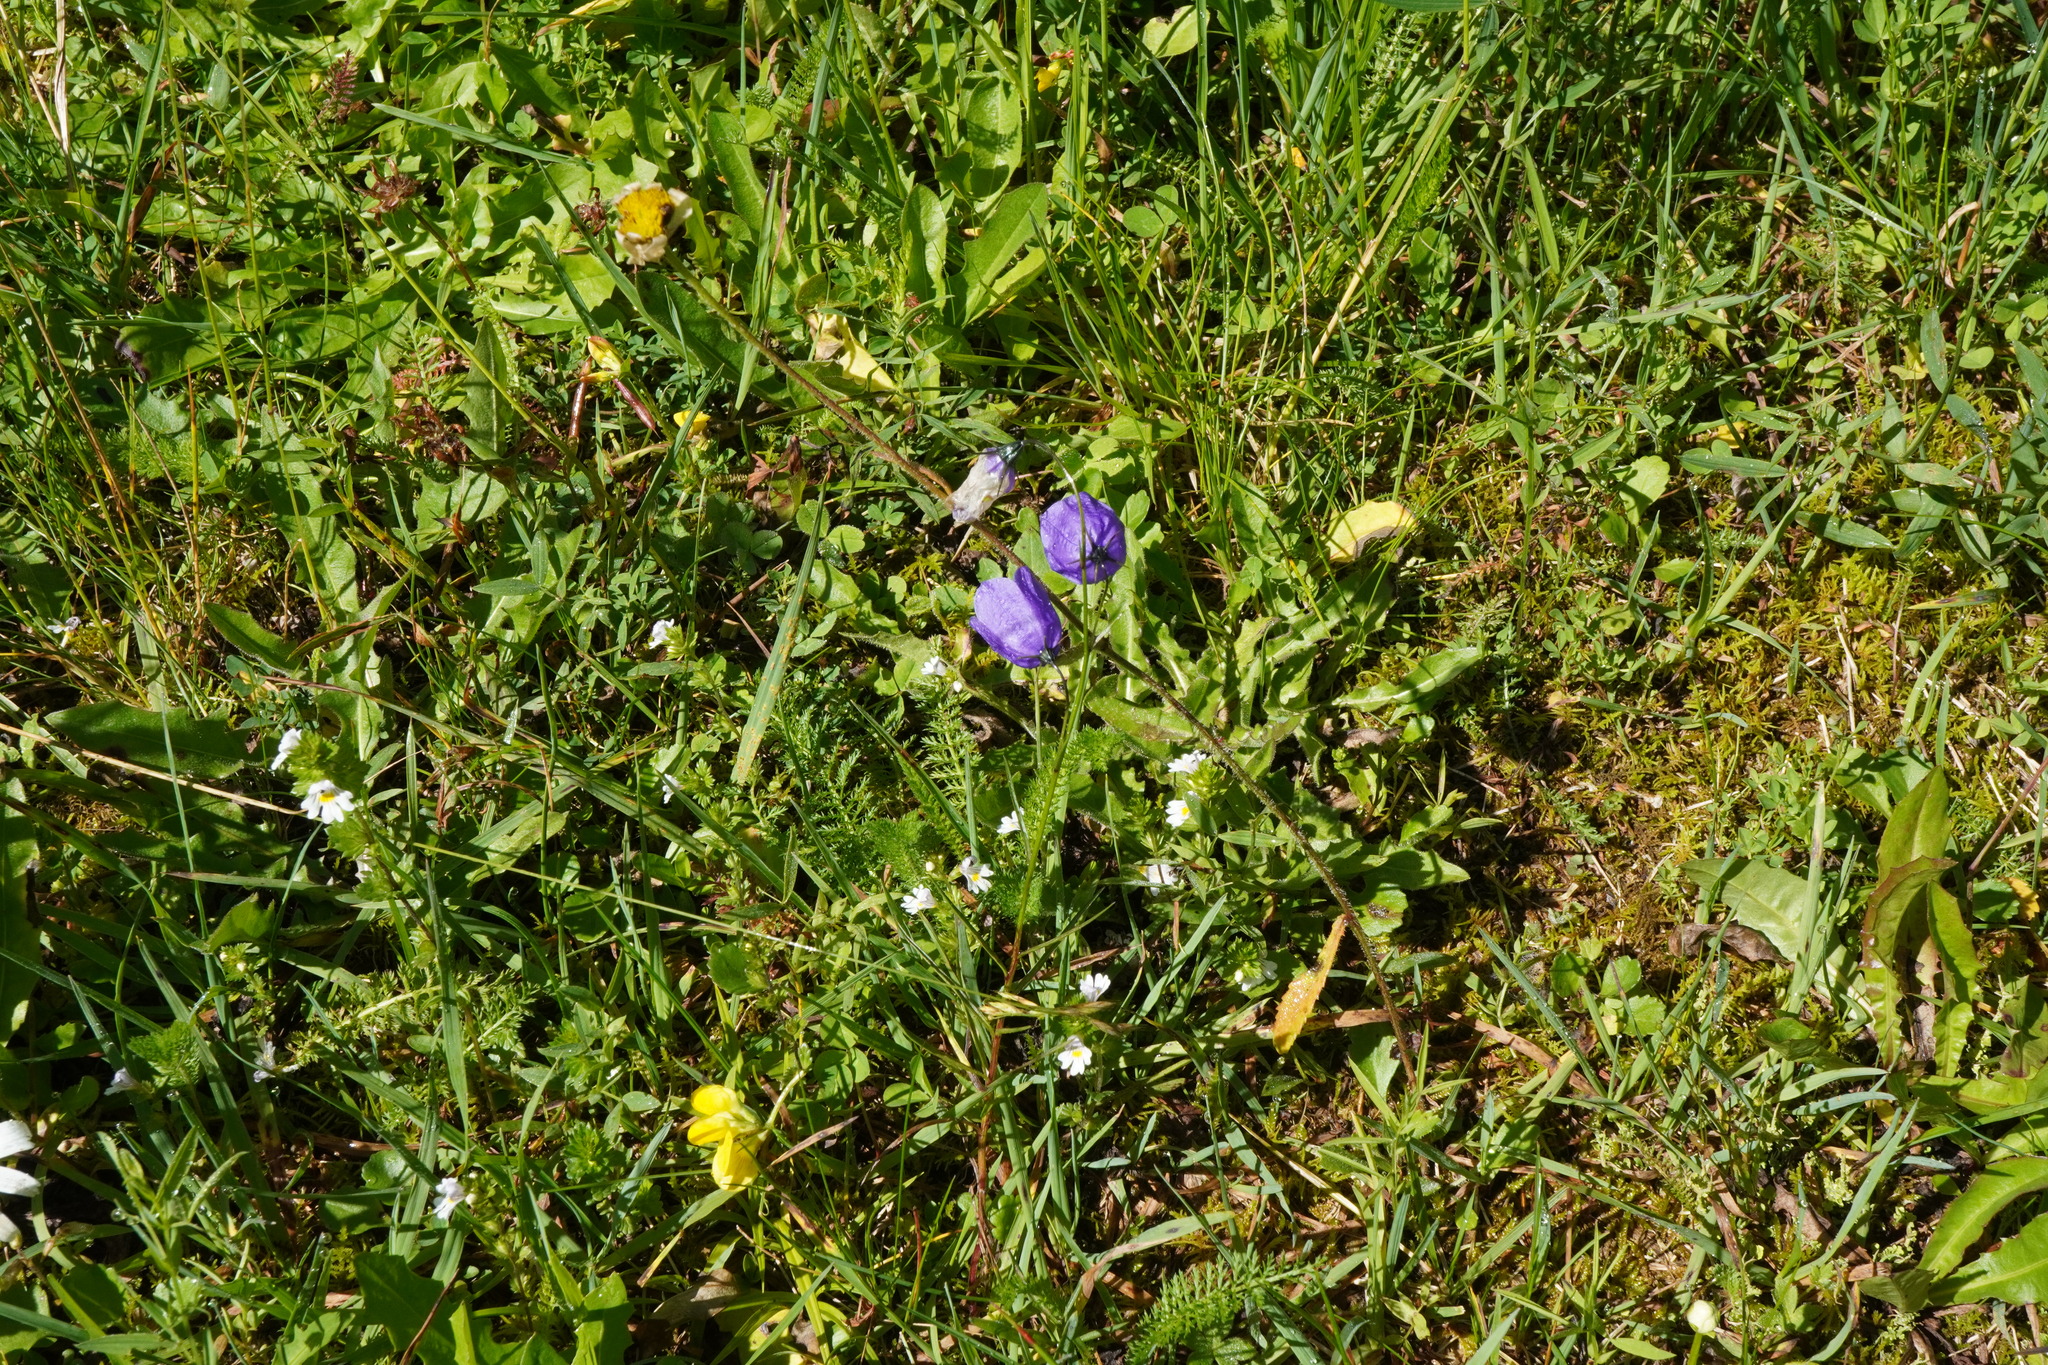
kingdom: Plantae
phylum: Tracheophyta
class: Magnoliopsida
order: Asterales
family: Campanulaceae
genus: Campanula
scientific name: Campanula scheuchzeri
